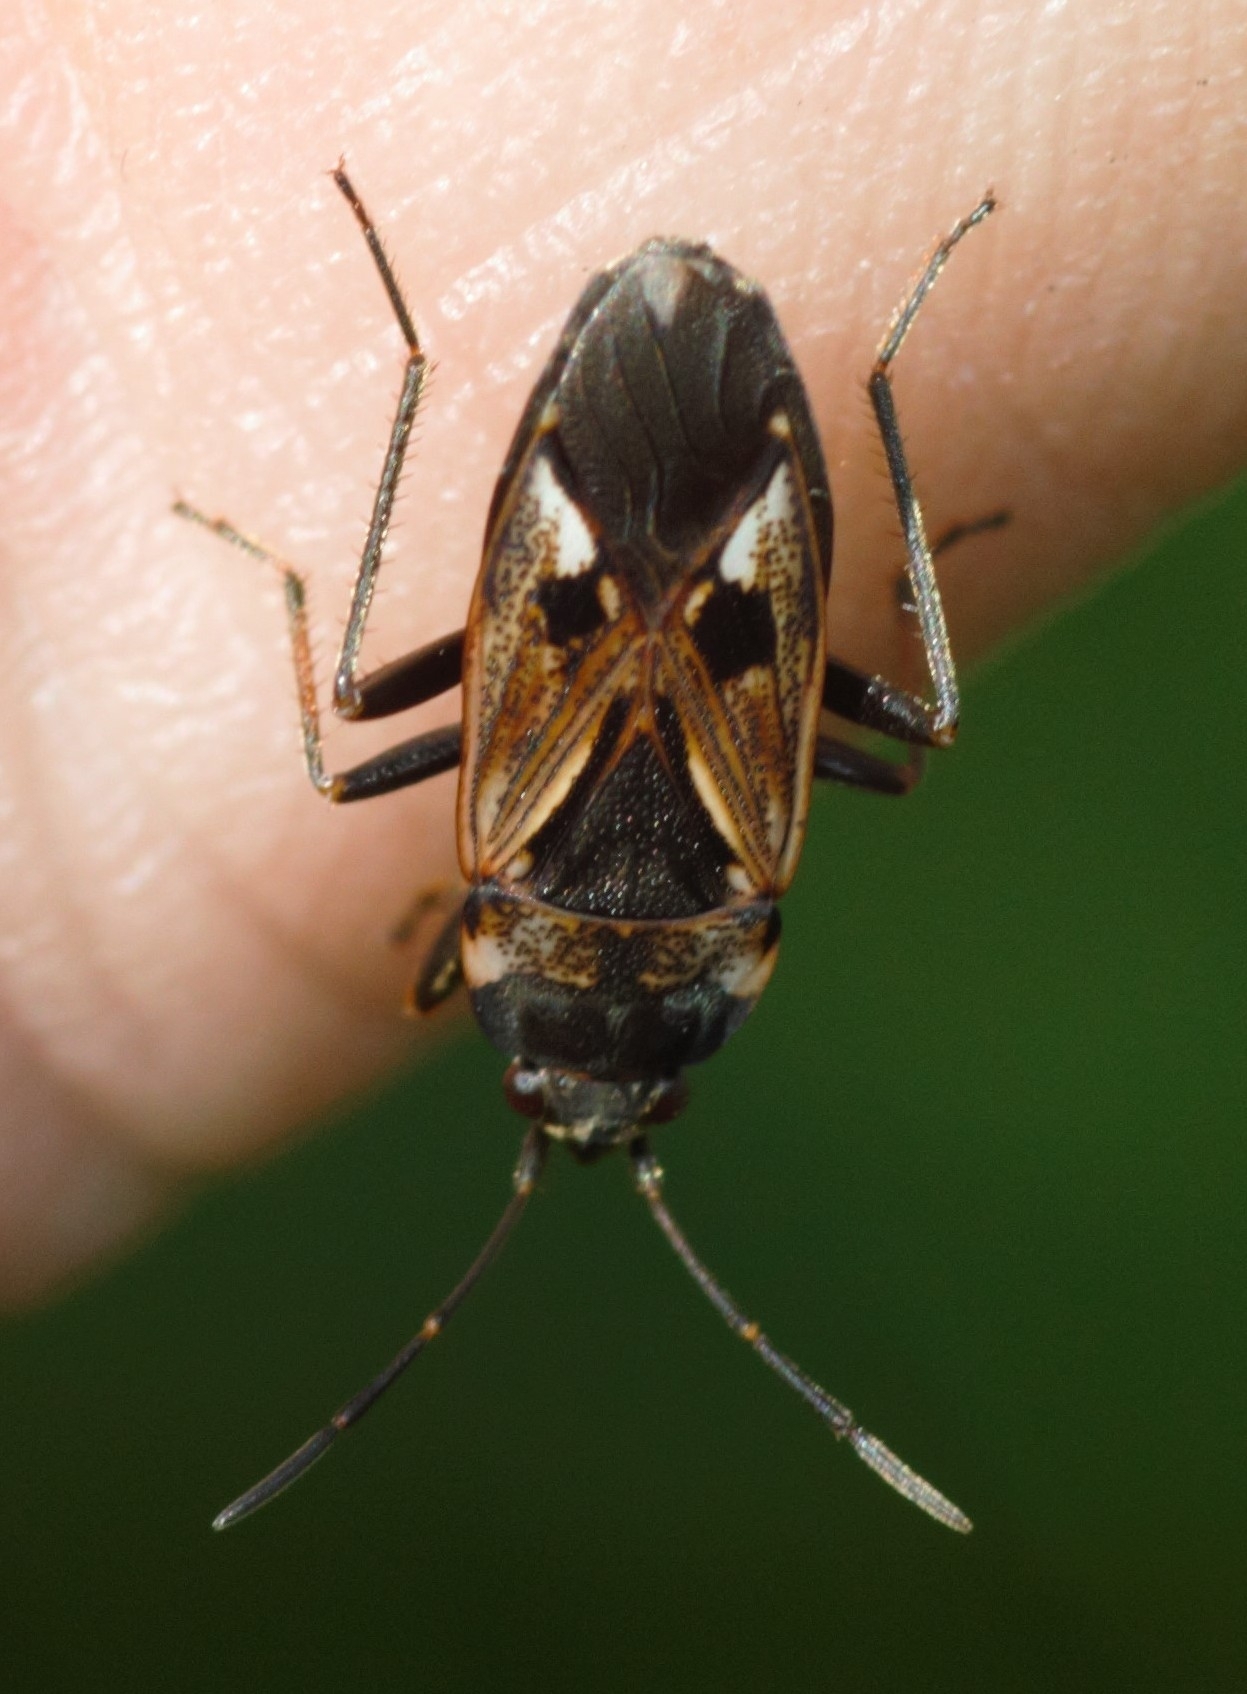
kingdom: Animalia
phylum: Arthropoda
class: Insecta
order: Hemiptera
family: Rhyparochromidae
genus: Rhyparochromus
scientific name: Rhyparochromus vulgaris
